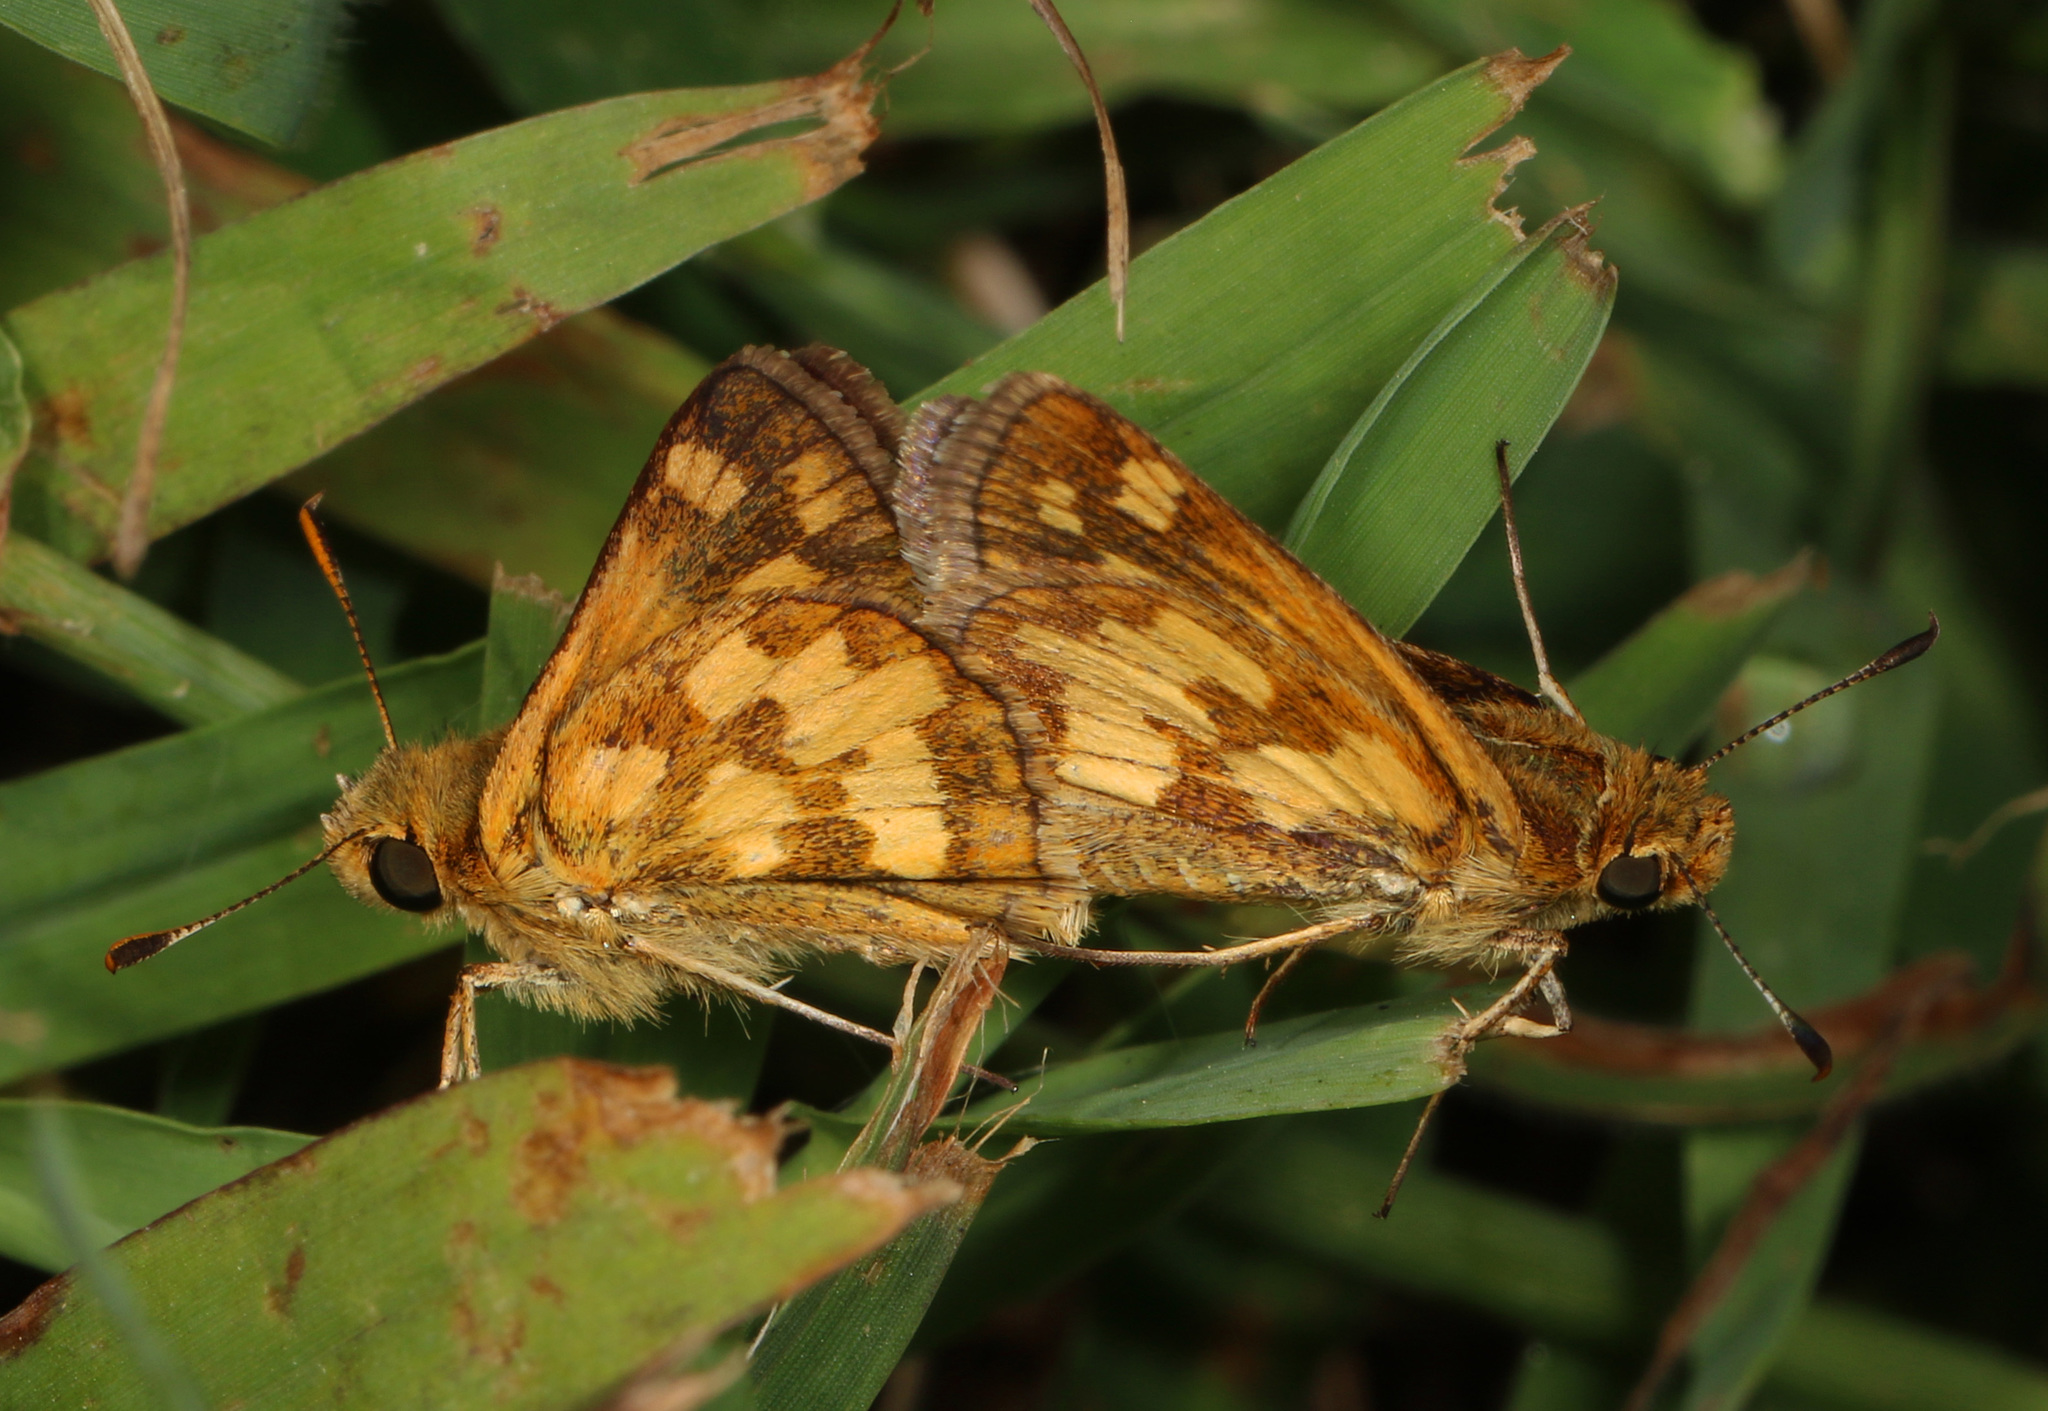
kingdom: Animalia
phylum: Arthropoda
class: Insecta
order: Lepidoptera
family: Hesperiidae
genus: Polites
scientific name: Polites coras
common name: Peck's skipper
